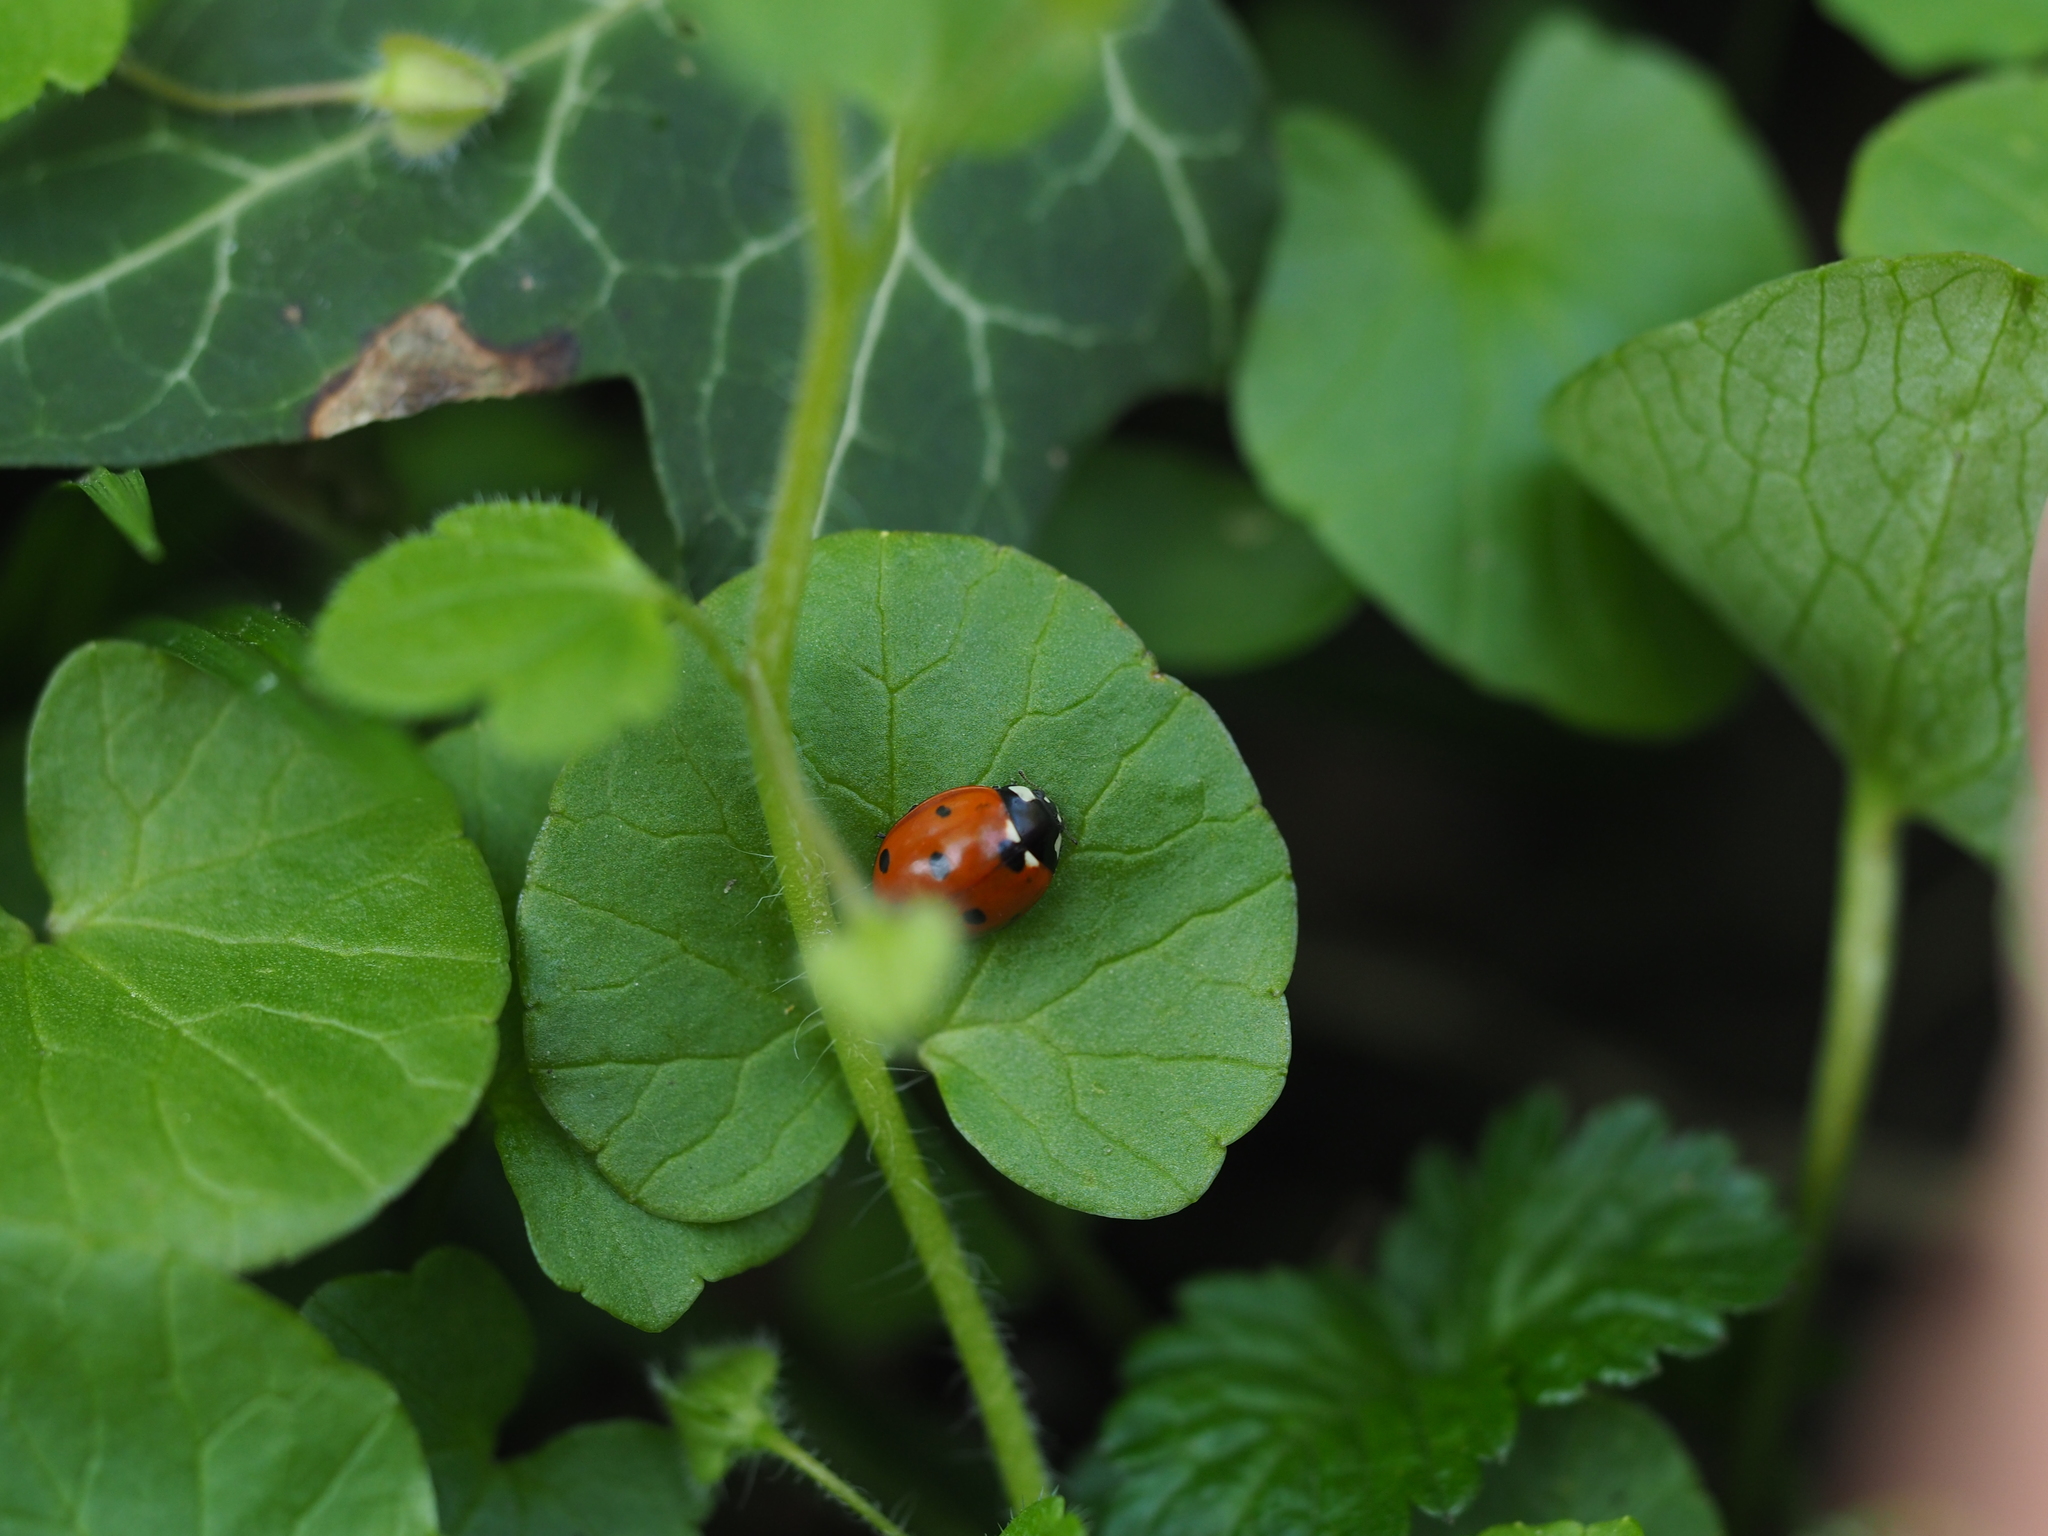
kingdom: Animalia
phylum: Arthropoda
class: Insecta
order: Coleoptera
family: Coccinellidae
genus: Coccinella
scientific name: Coccinella septempunctata
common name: Sevenspotted lady beetle
